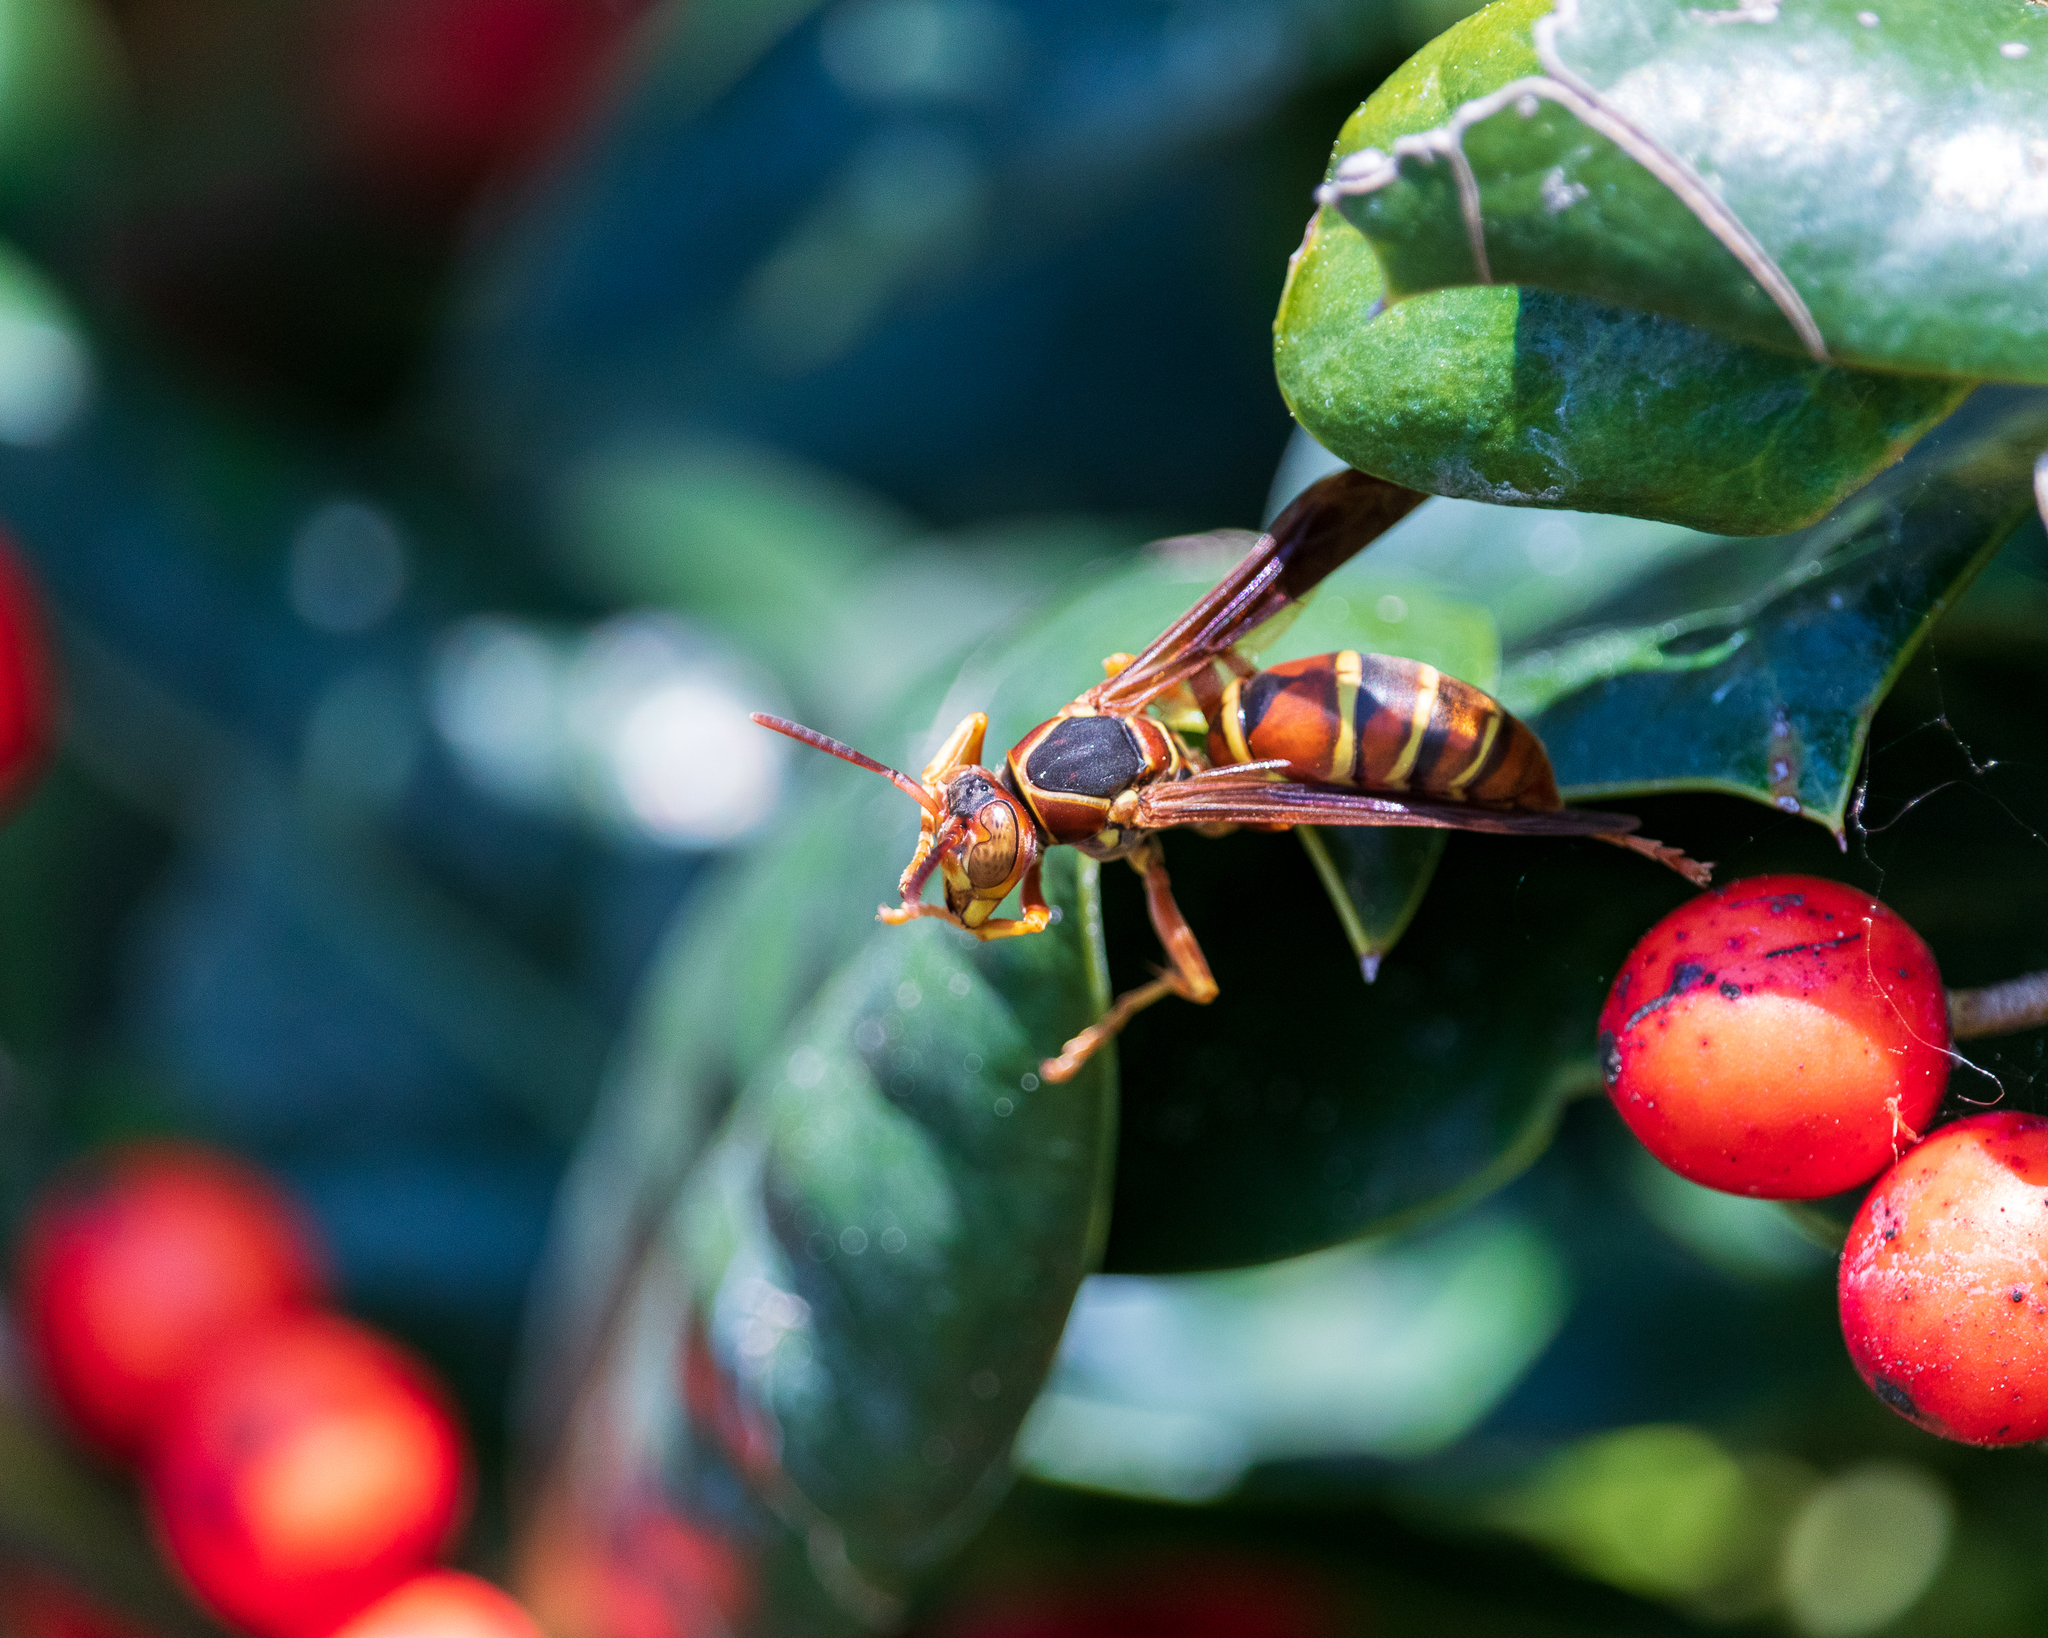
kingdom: Animalia
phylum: Arthropoda
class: Insecta
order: Hymenoptera
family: Eumenidae
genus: Polistes
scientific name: Polistes dorsalis
